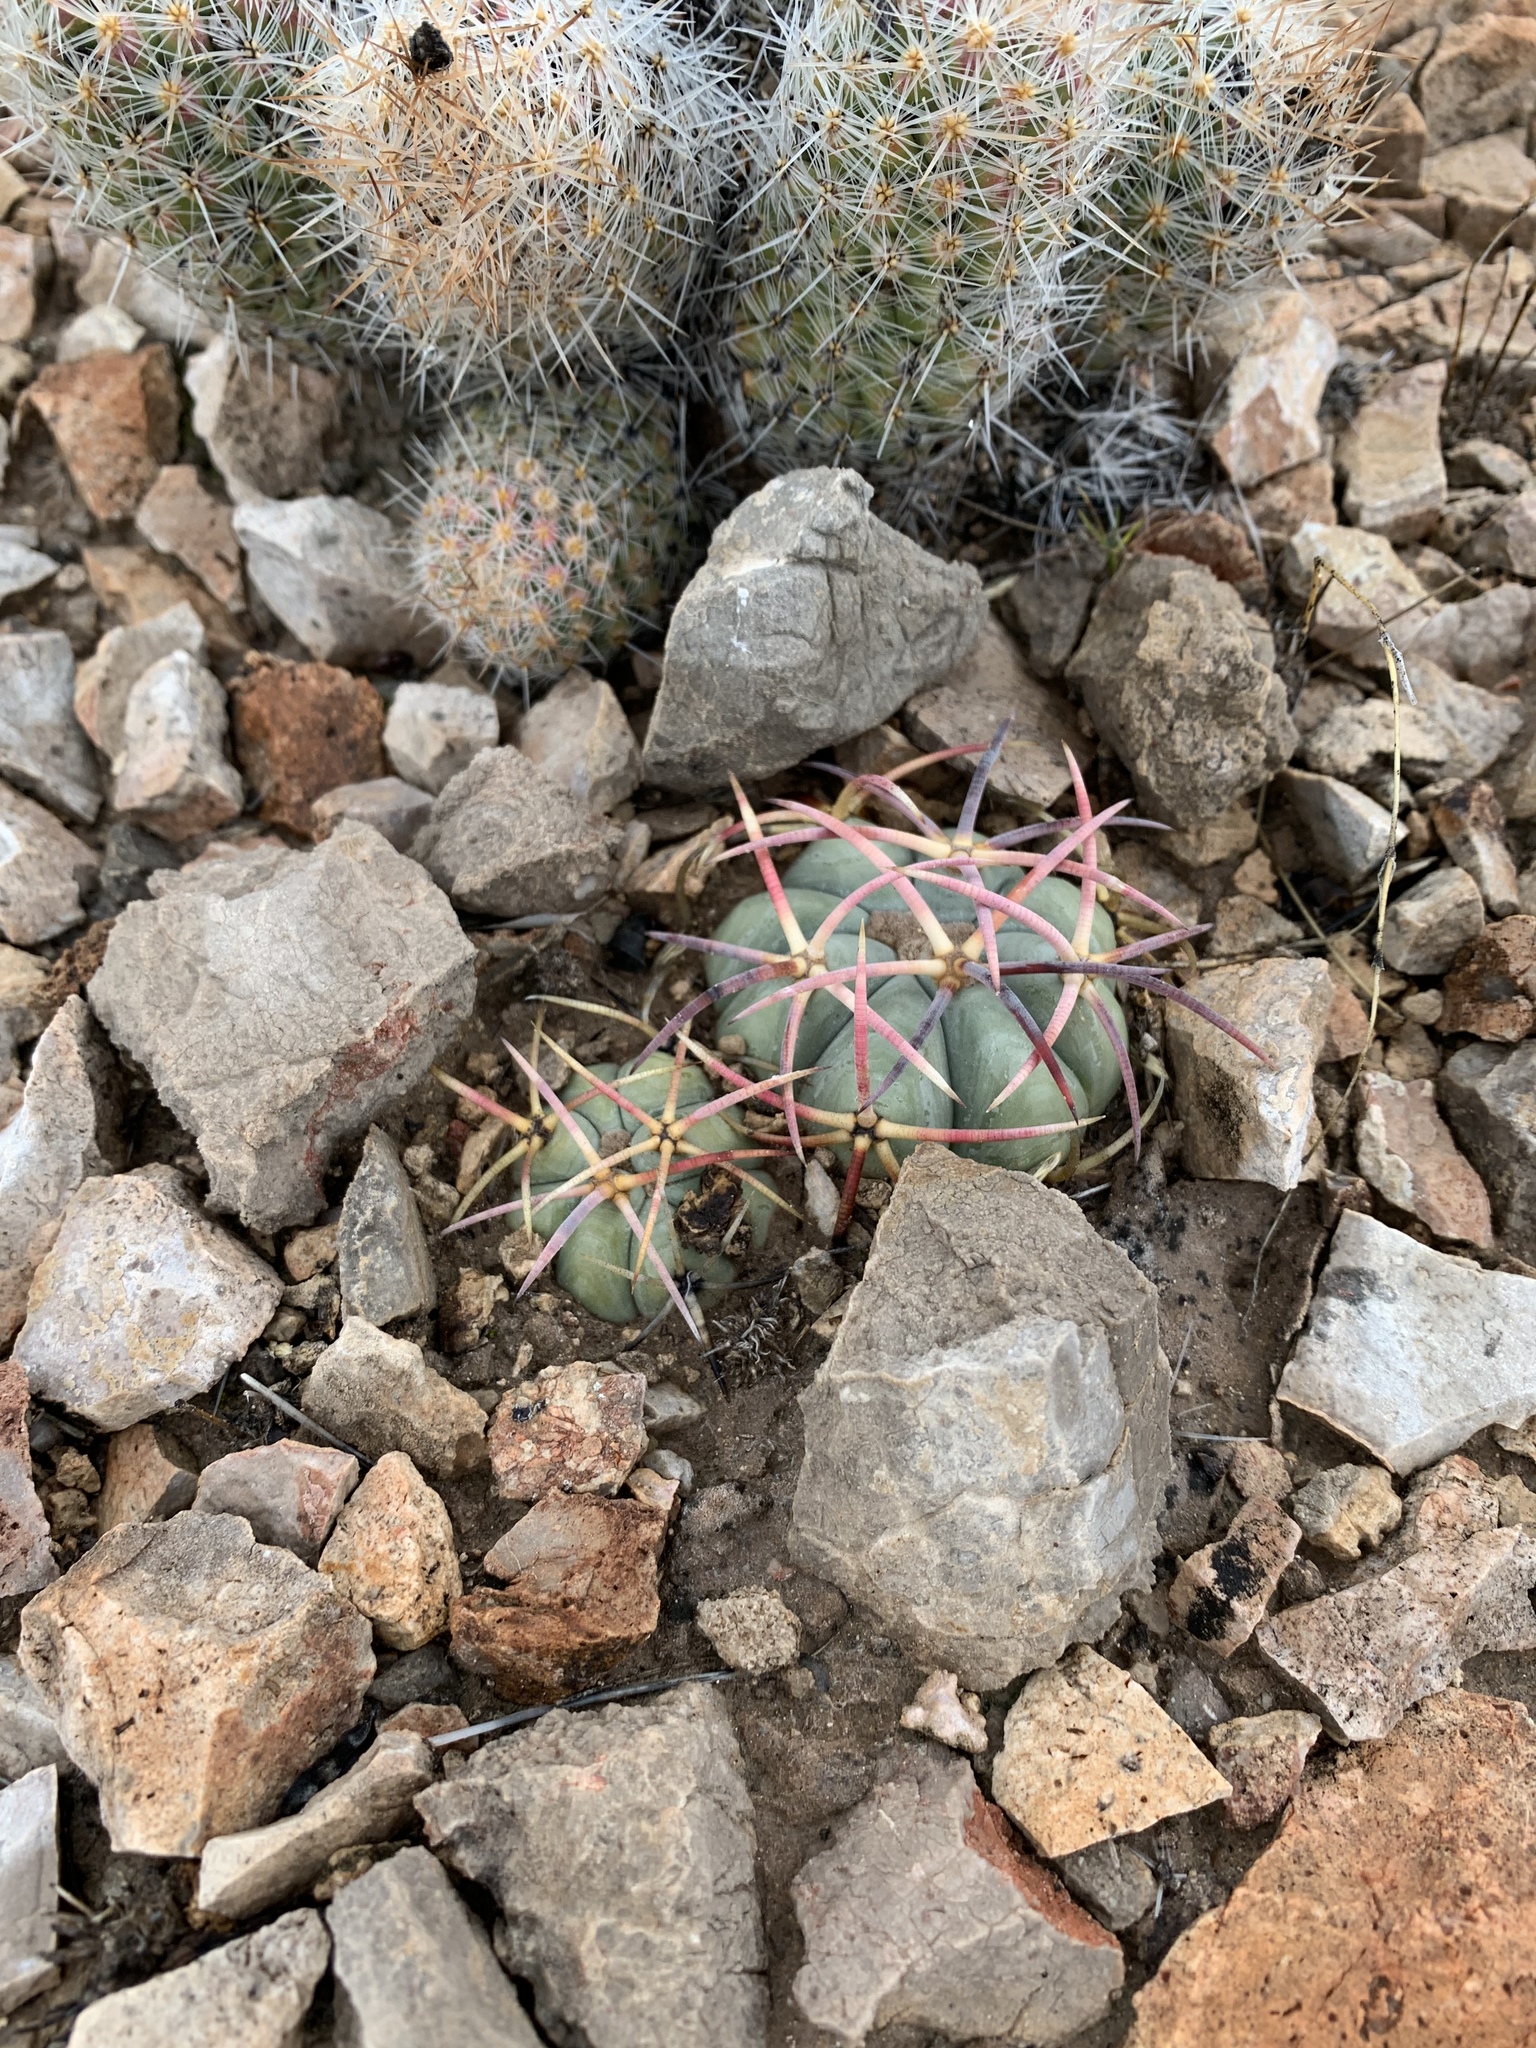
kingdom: Plantae
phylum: Tracheophyta
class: Magnoliopsida
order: Caryophyllales
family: Cactaceae
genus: Echinocactus
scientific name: Echinocactus horizonthalonius
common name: Devilshead
